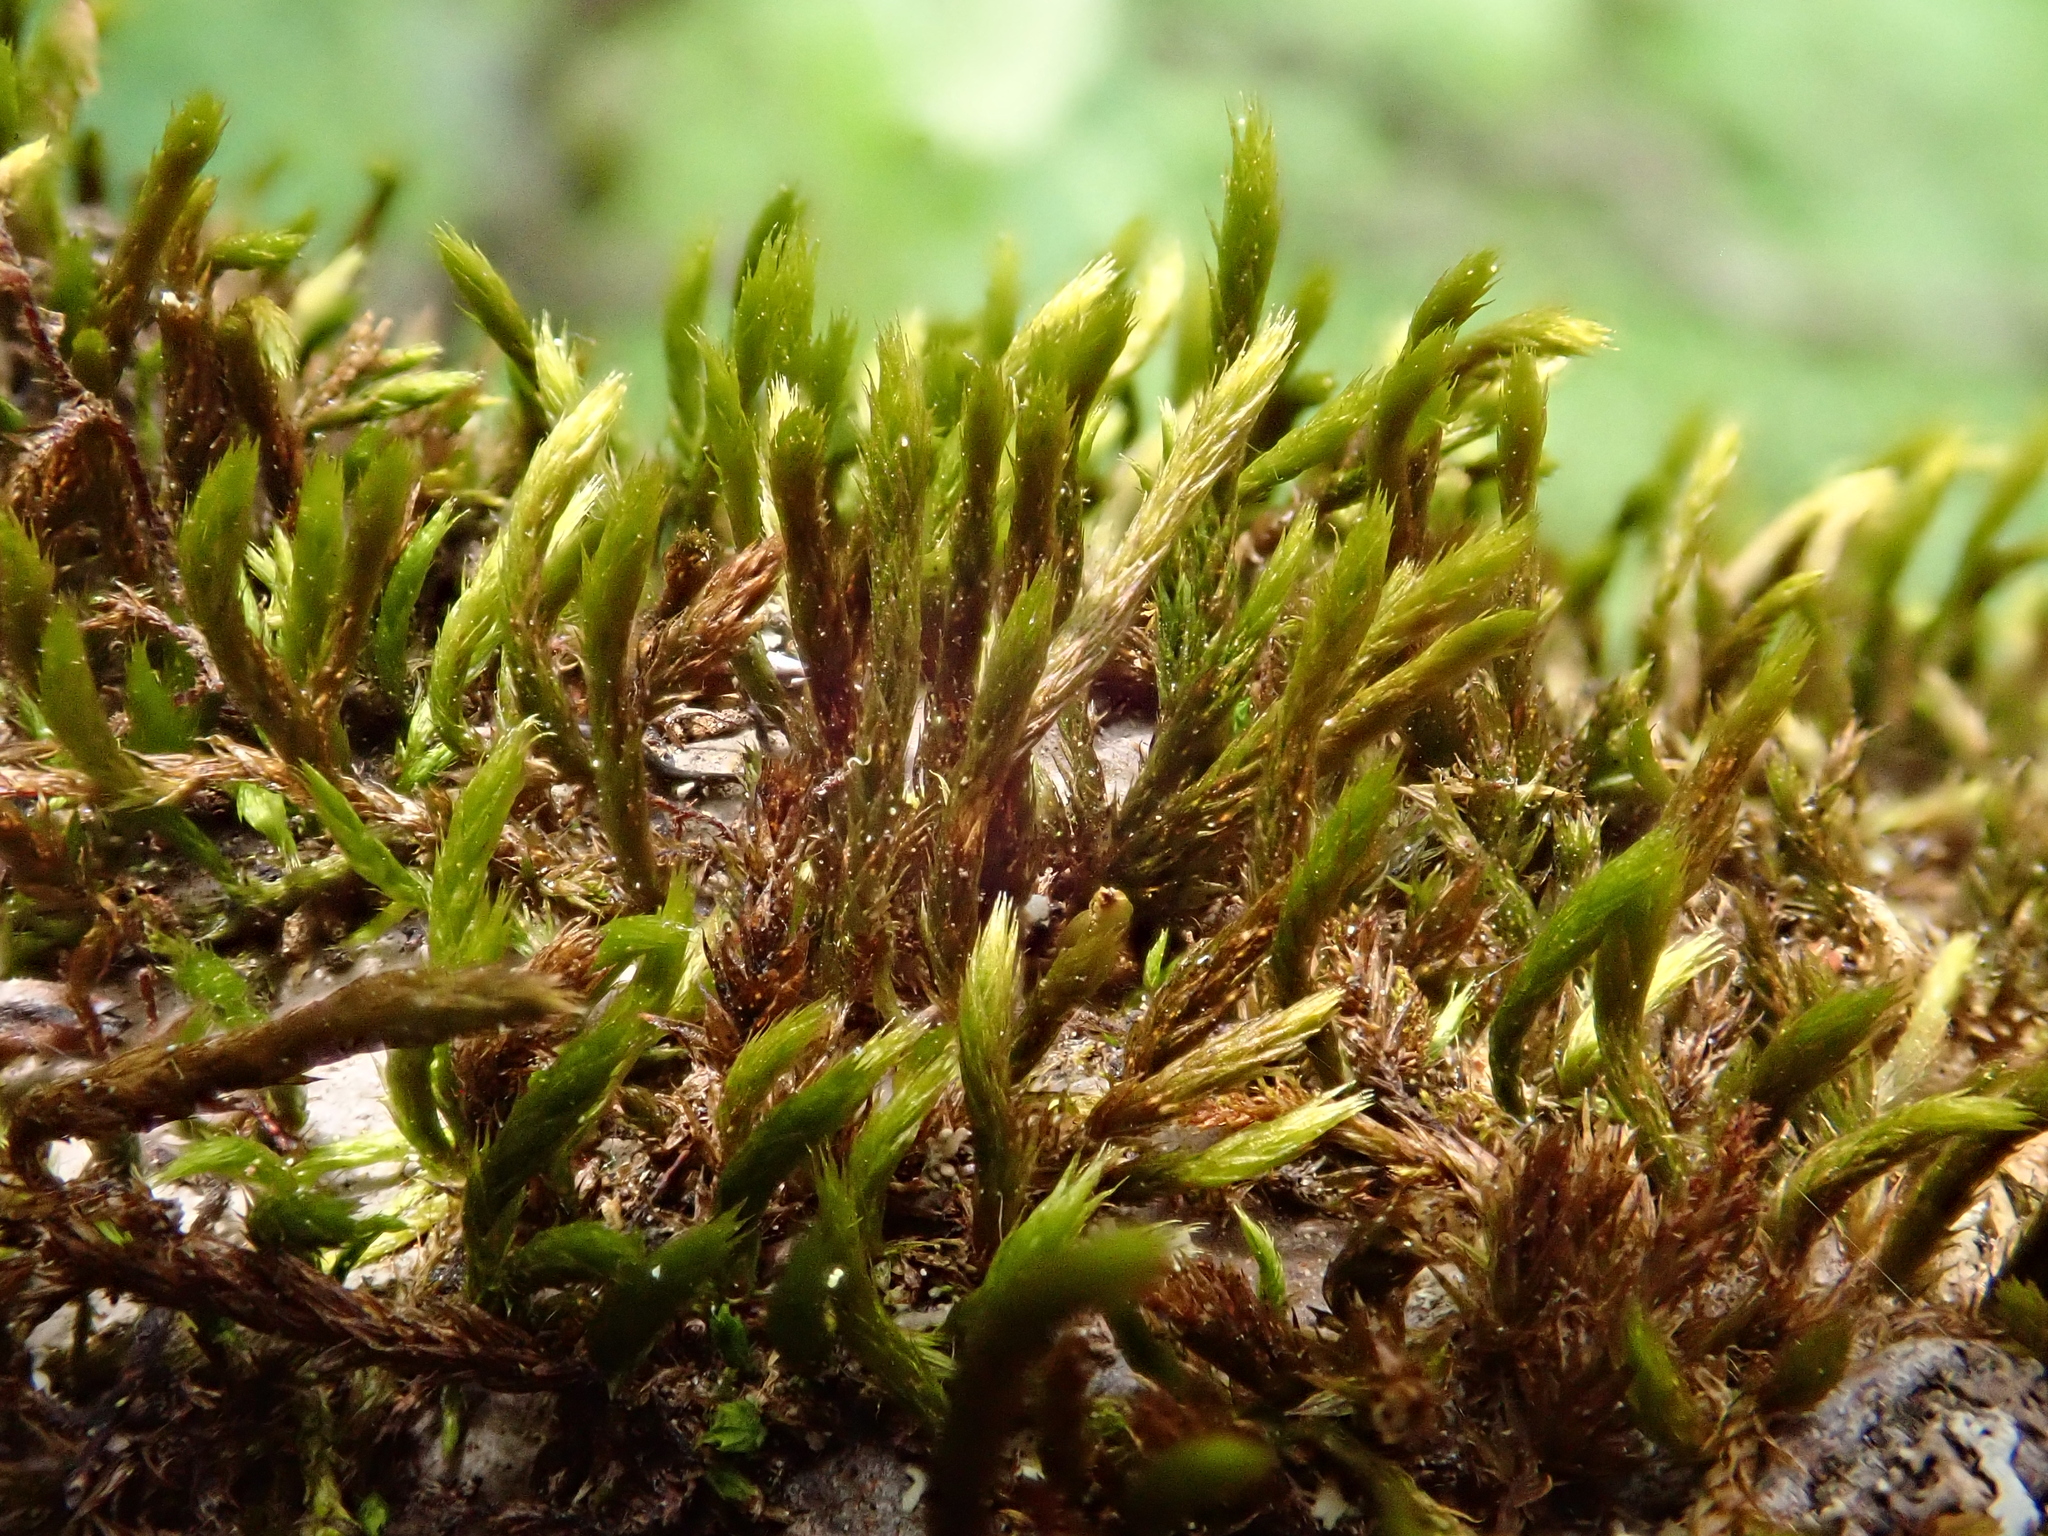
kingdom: Plantae
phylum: Bryophyta
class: Bryopsida
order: Hypnales
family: Leucodontaceae
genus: Leucodon
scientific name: Leucodon sciuroides
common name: Squirrel-tail moss
